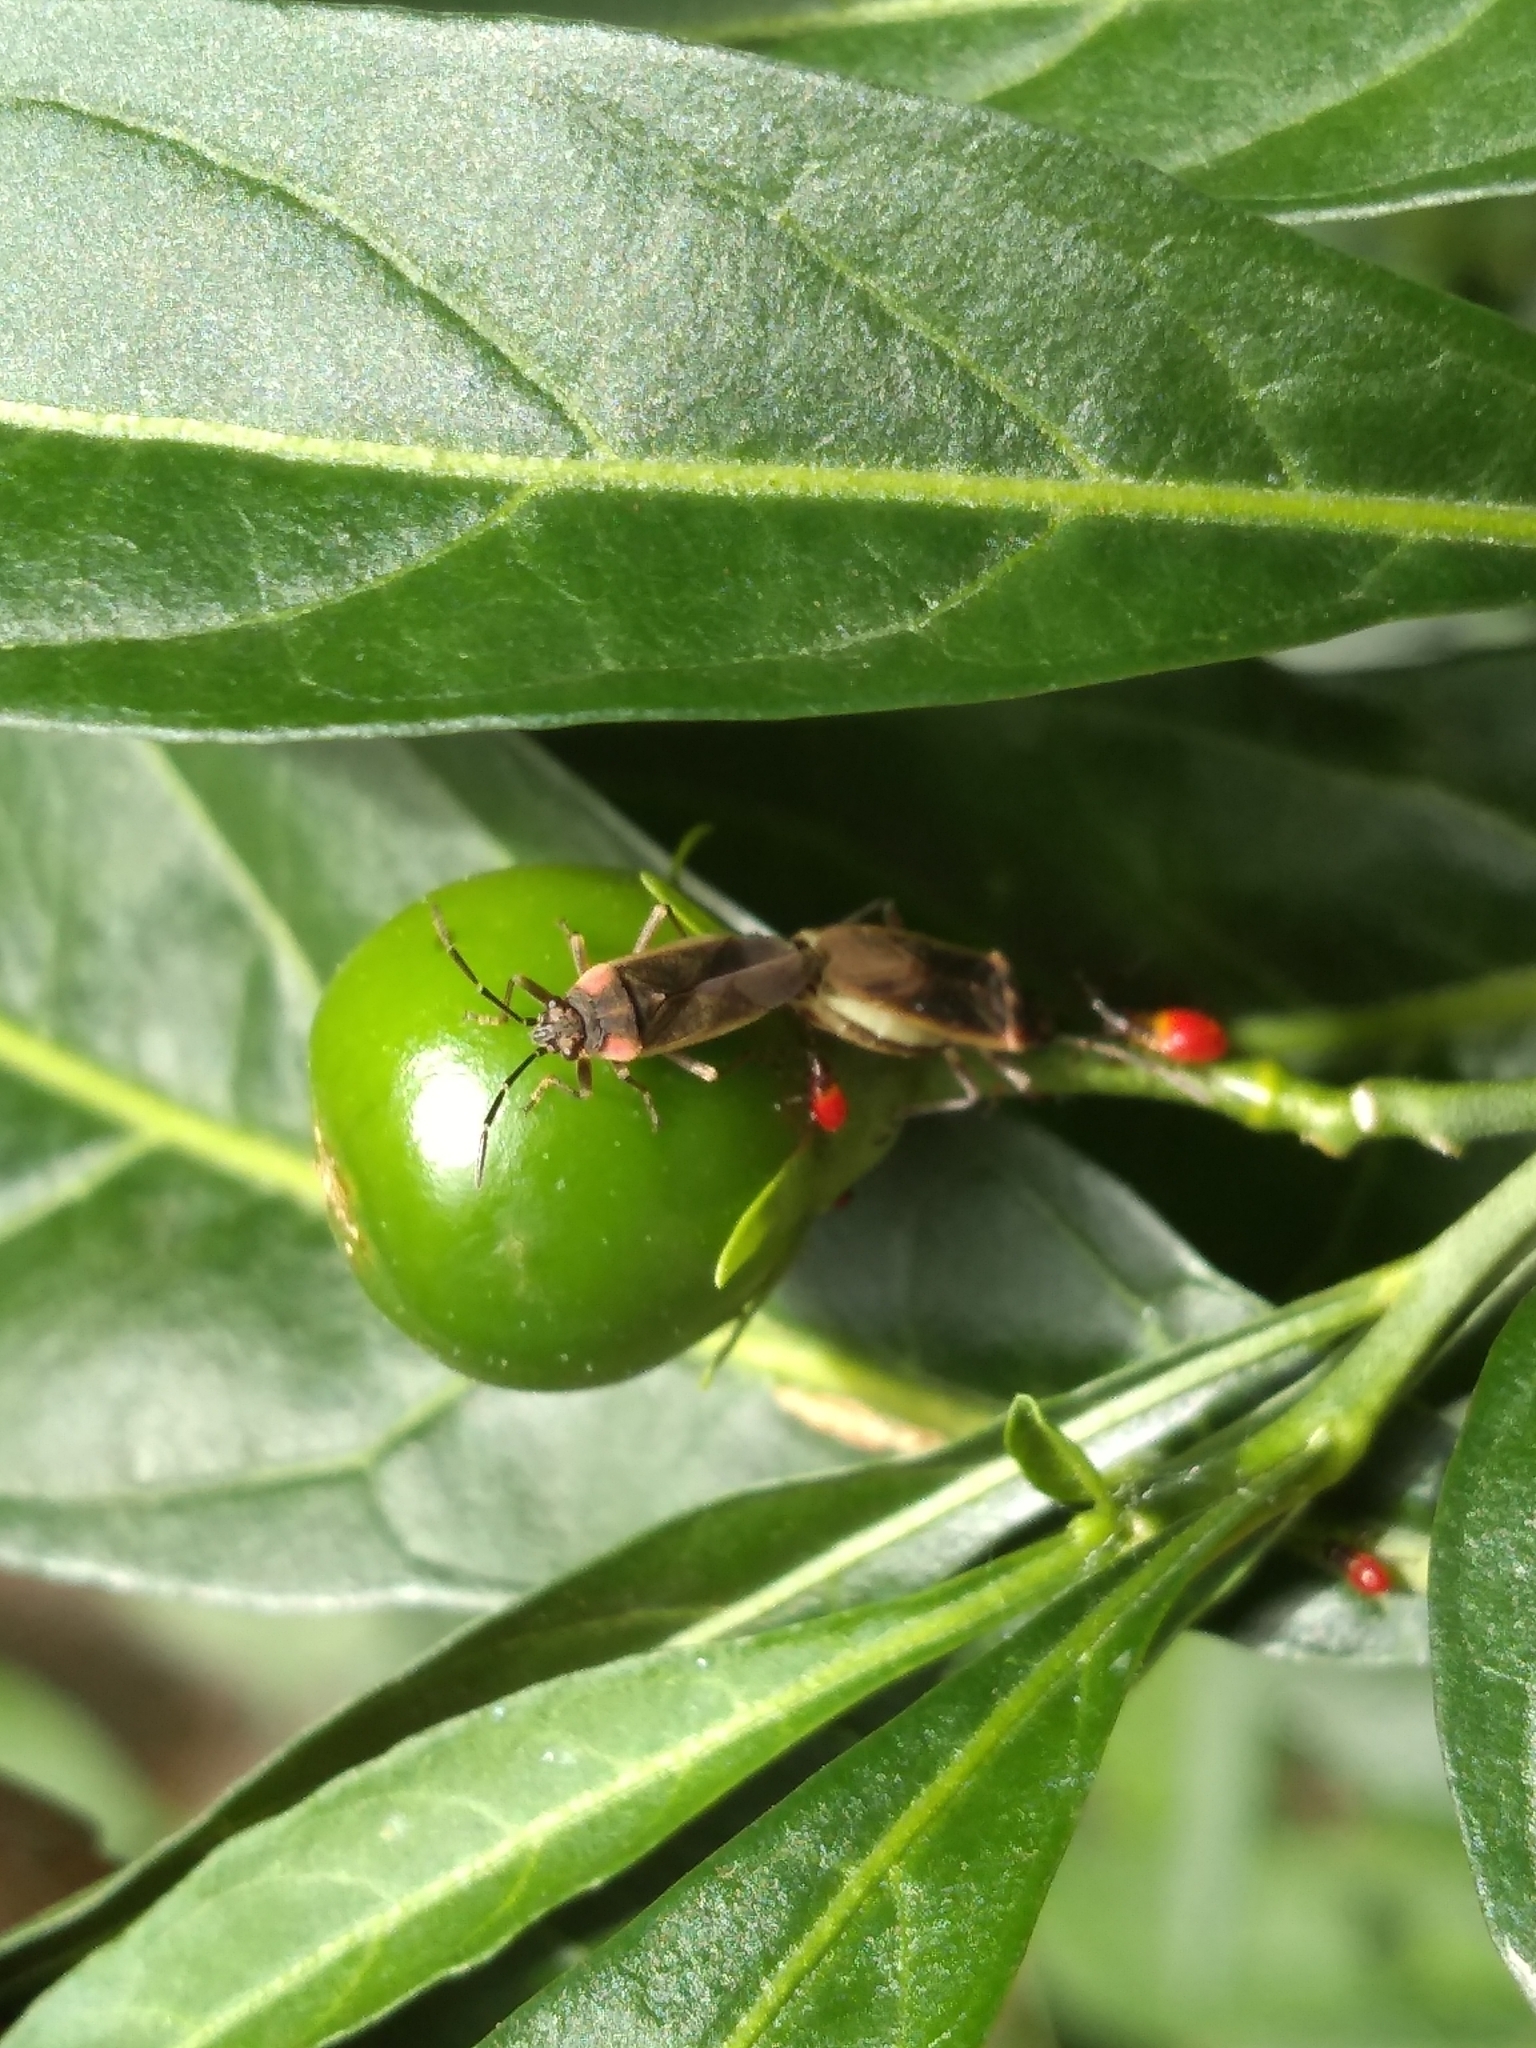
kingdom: Animalia
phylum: Arthropoda
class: Insecta
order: Hemiptera
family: Lygaeidae
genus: Acroleucus
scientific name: Acroleucus coxalis
